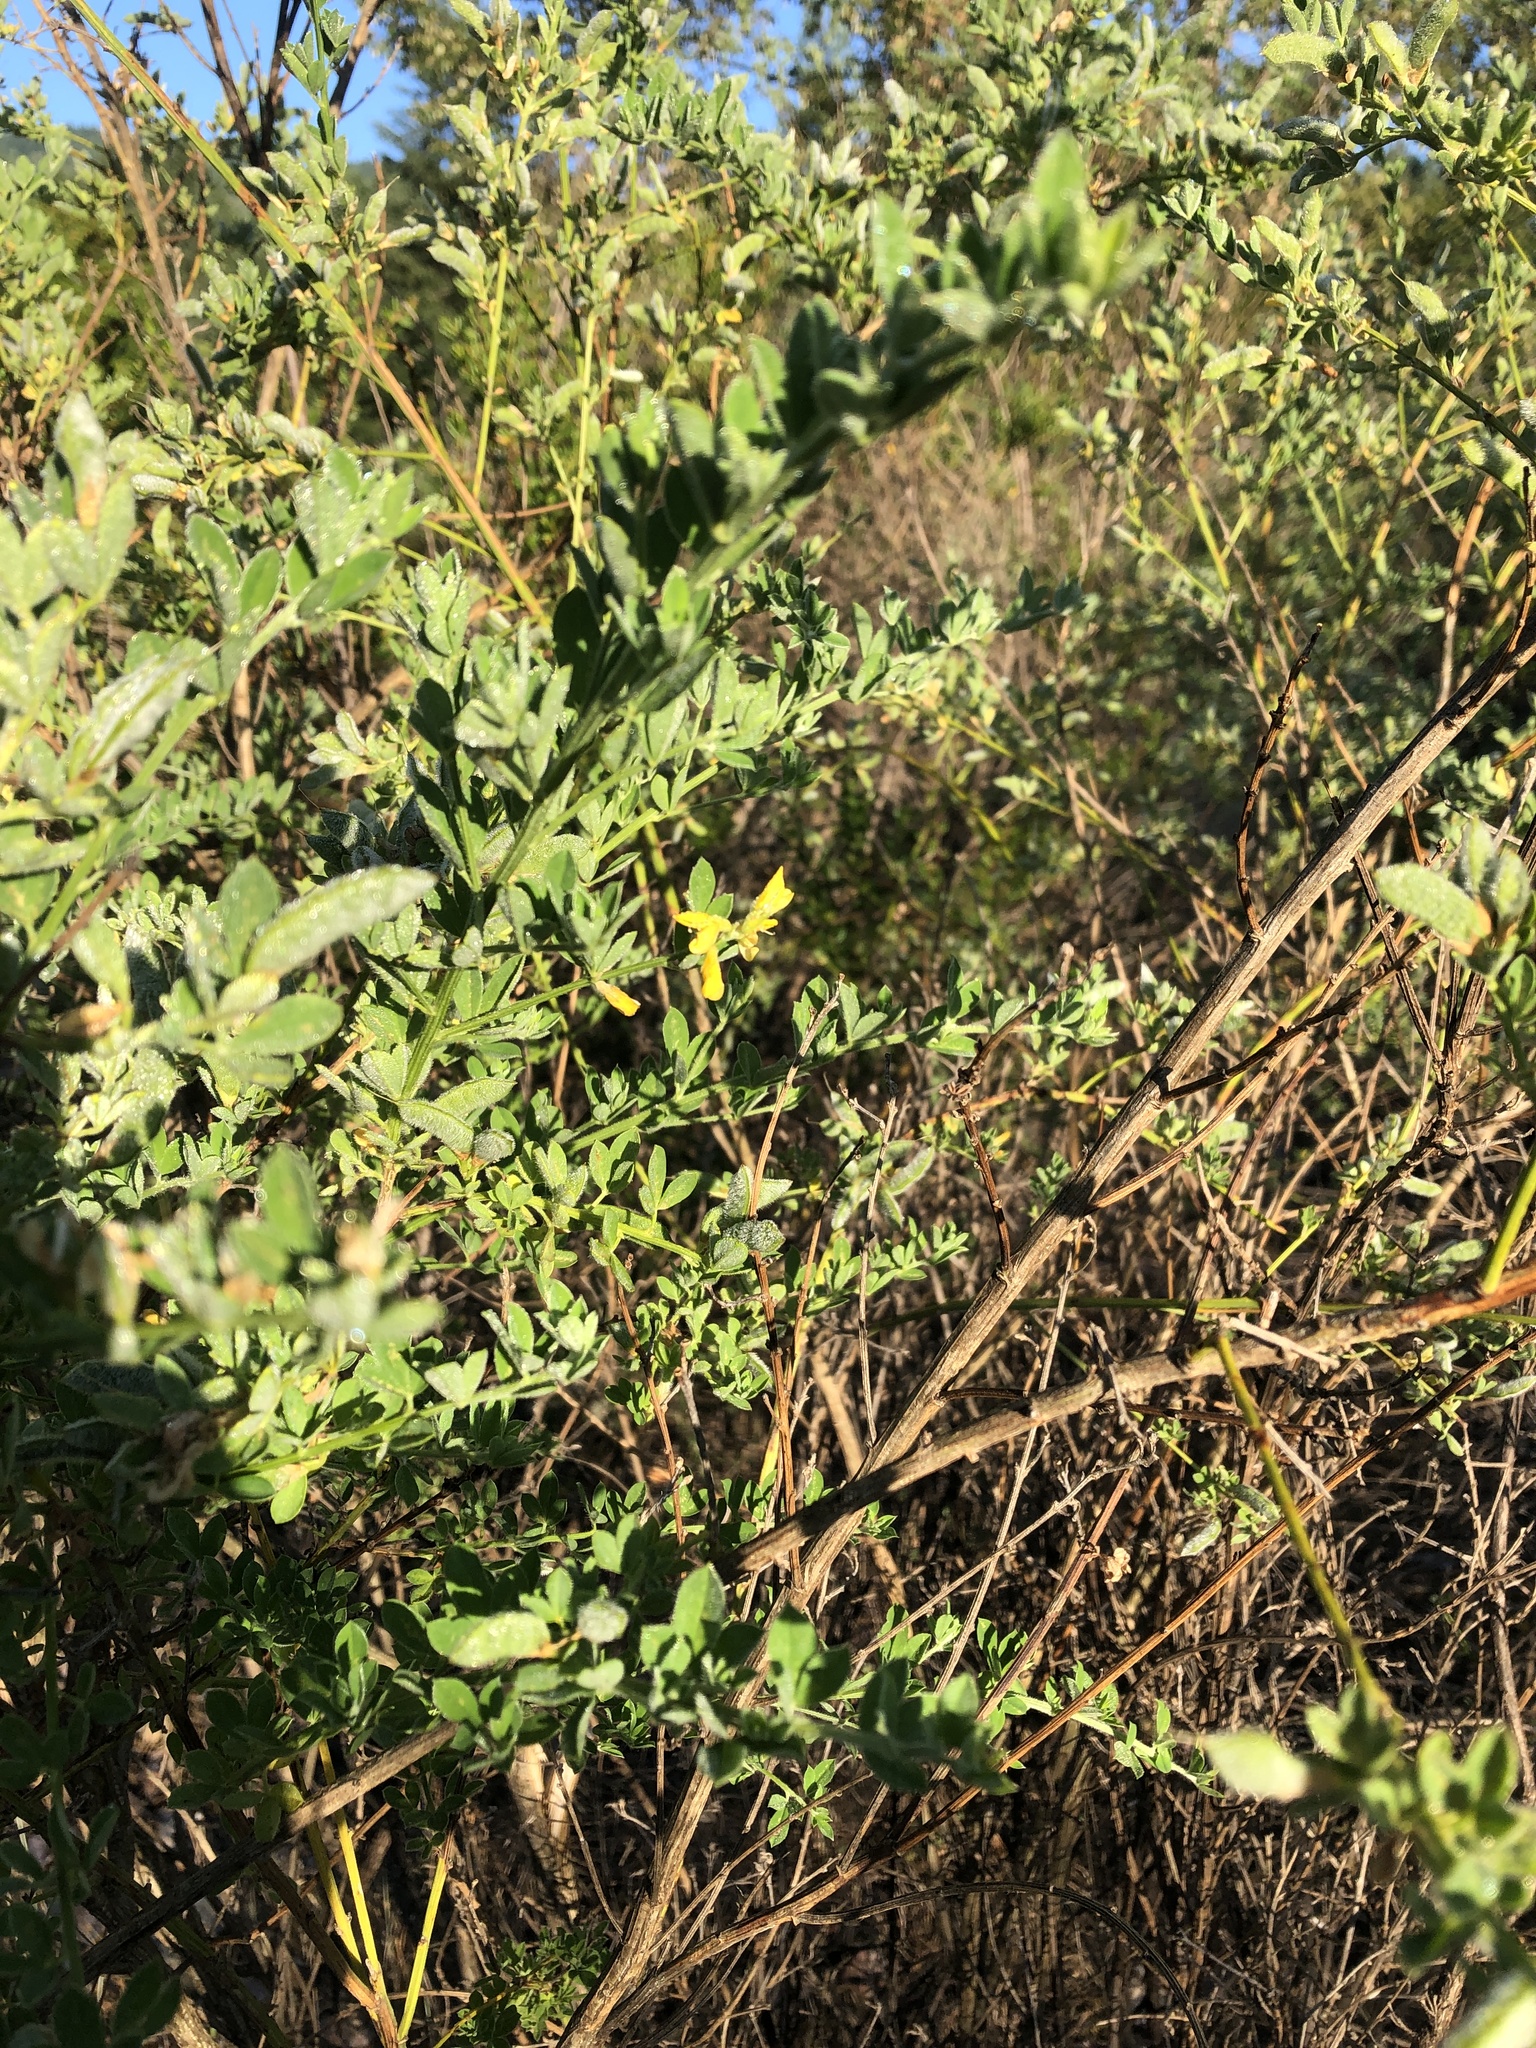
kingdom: Plantae
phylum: Tracheophyta
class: Magnoliopsida
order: Fabales
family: Fabaceae
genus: Genista
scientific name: Genista monspessulana
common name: Montpellier broom
